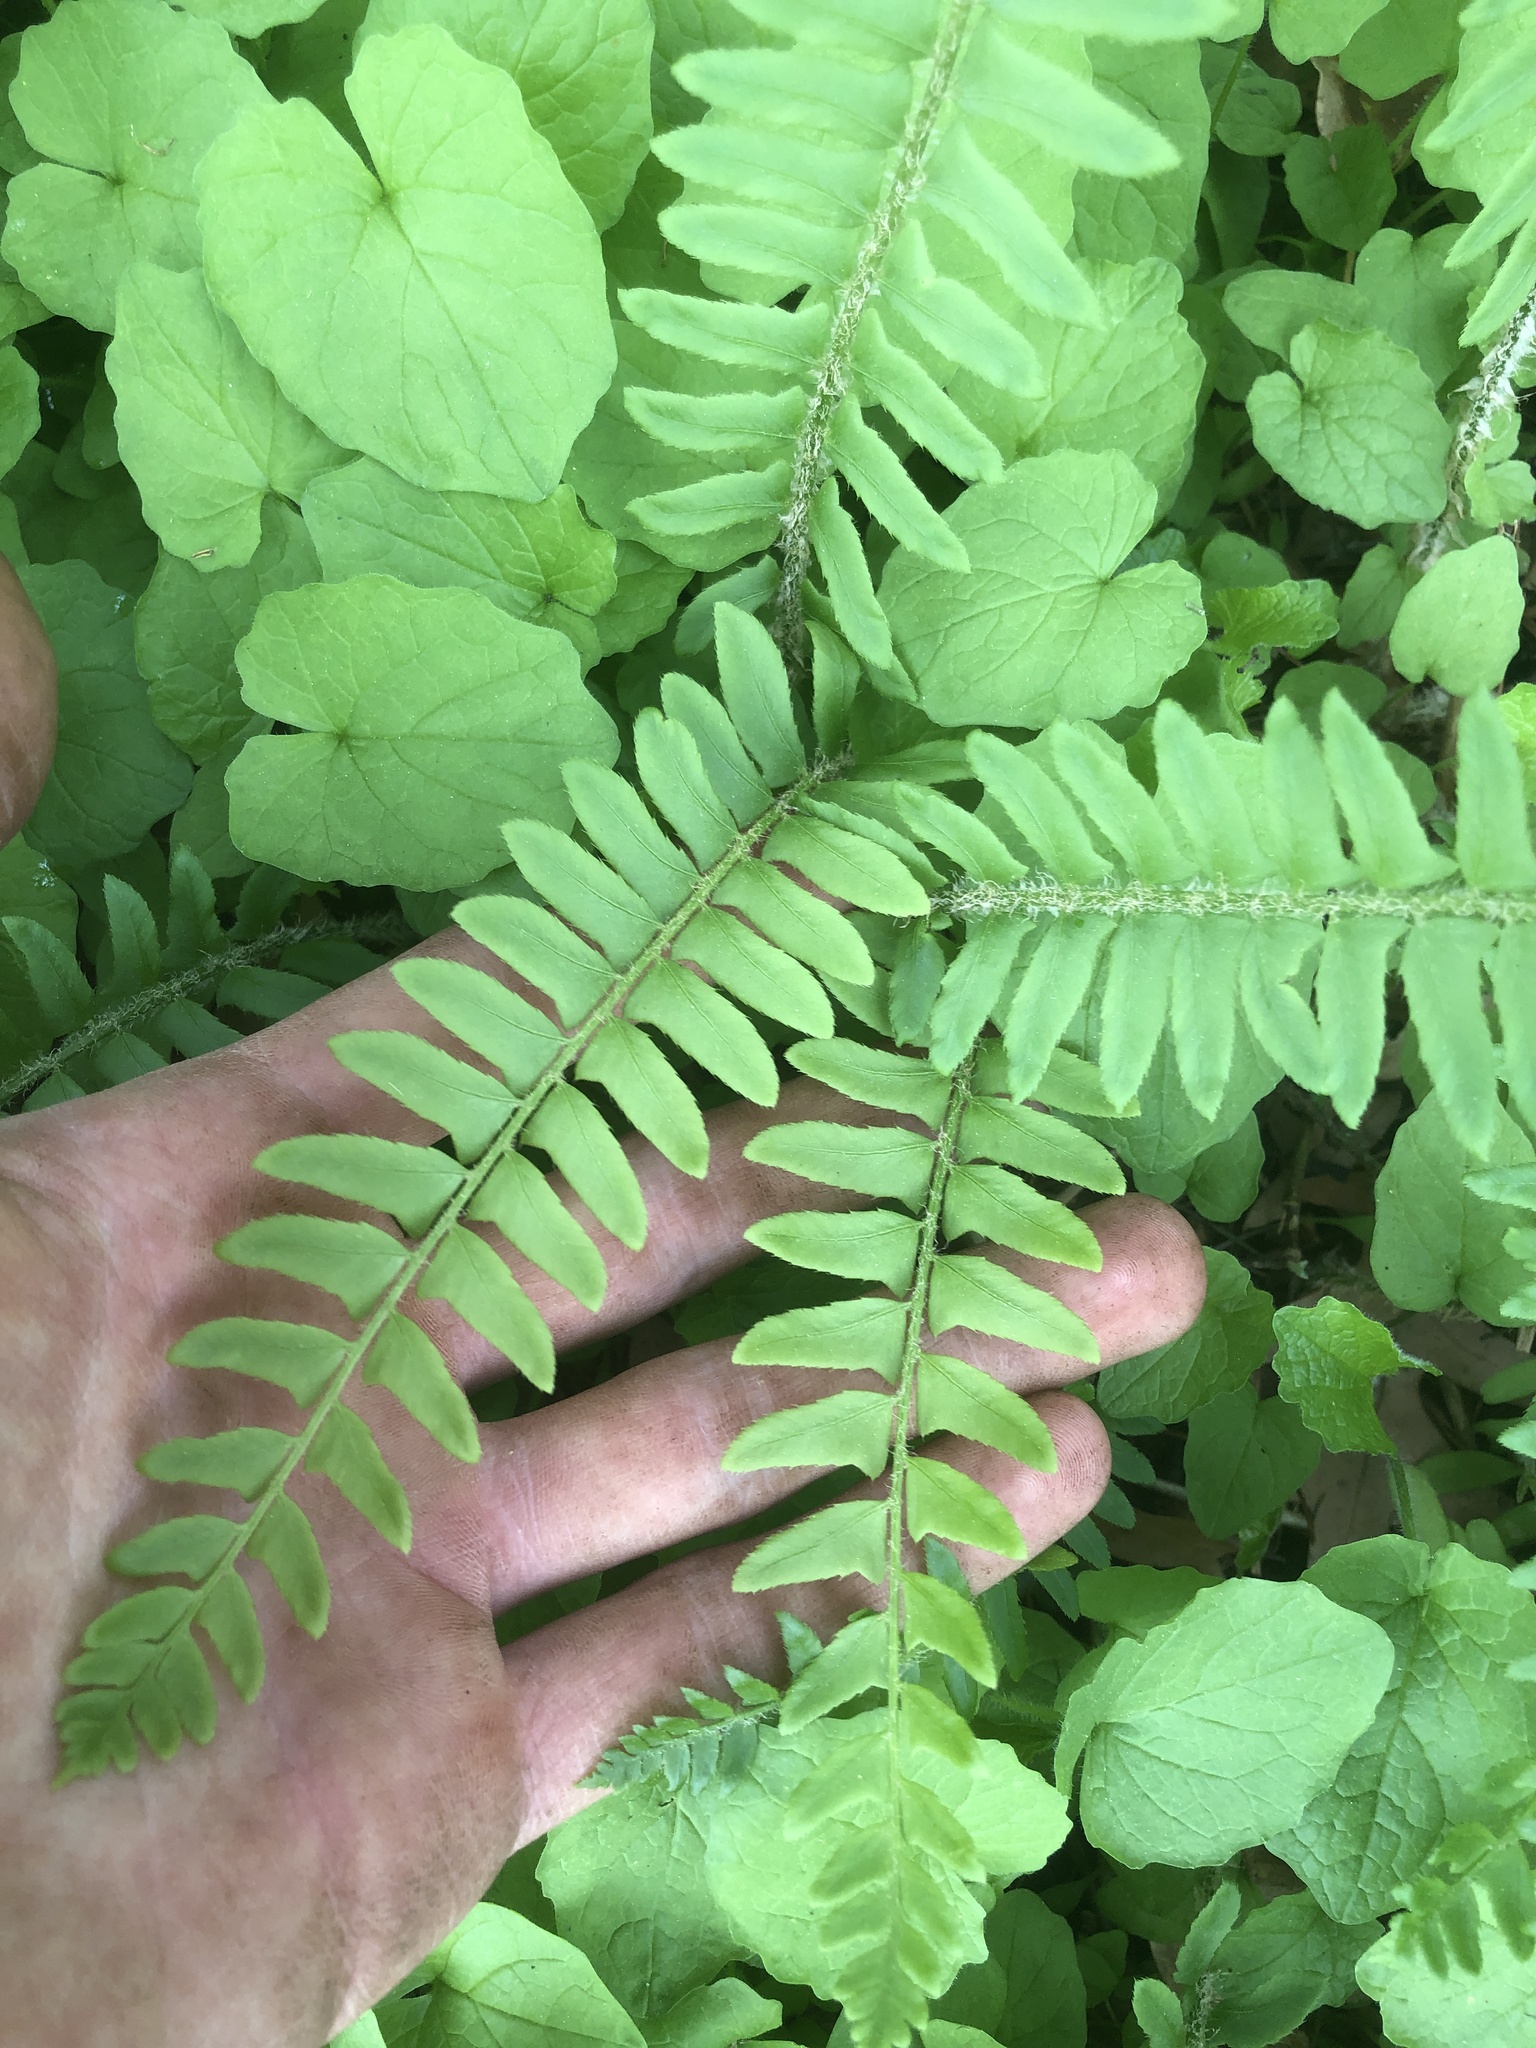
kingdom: Plantae
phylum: Tracheophyta
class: Polypodiopsida
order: Polypodiales
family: Dryopteridaceae
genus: Polystichum
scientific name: Polystichum acrostichoides
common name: Christmas fern
